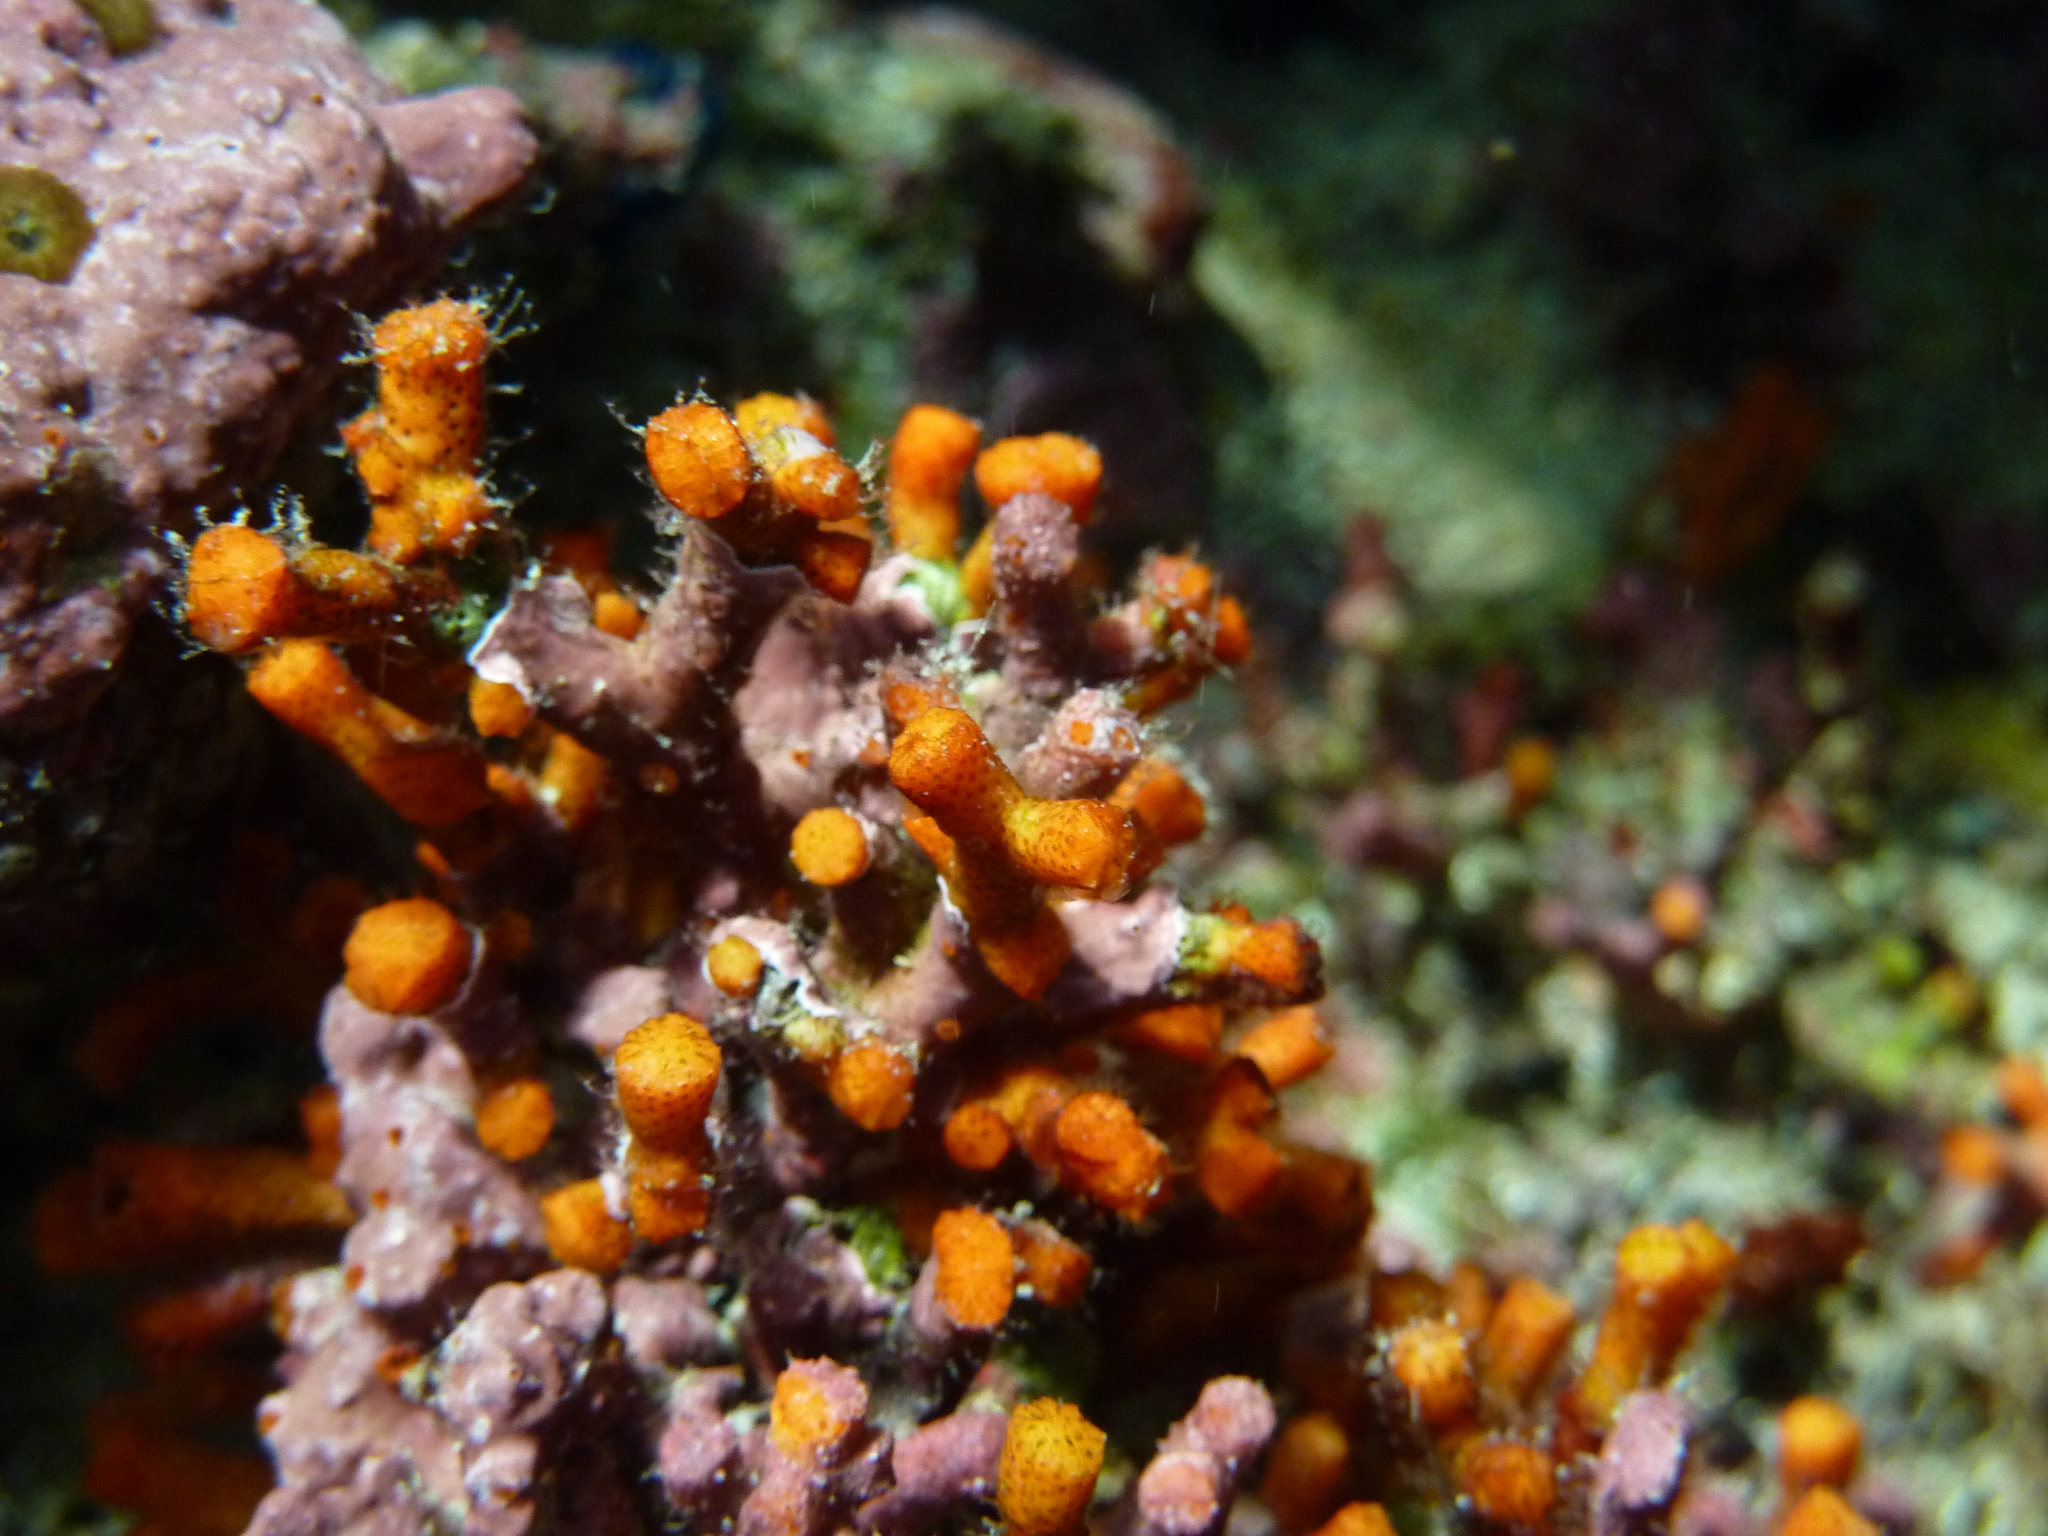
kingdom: Animalia
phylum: Bryozoa
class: Gymnolaemata
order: Cheilostomatida
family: Myriaporidae
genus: Myriapora
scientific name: Myriapora truncata
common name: False coral
